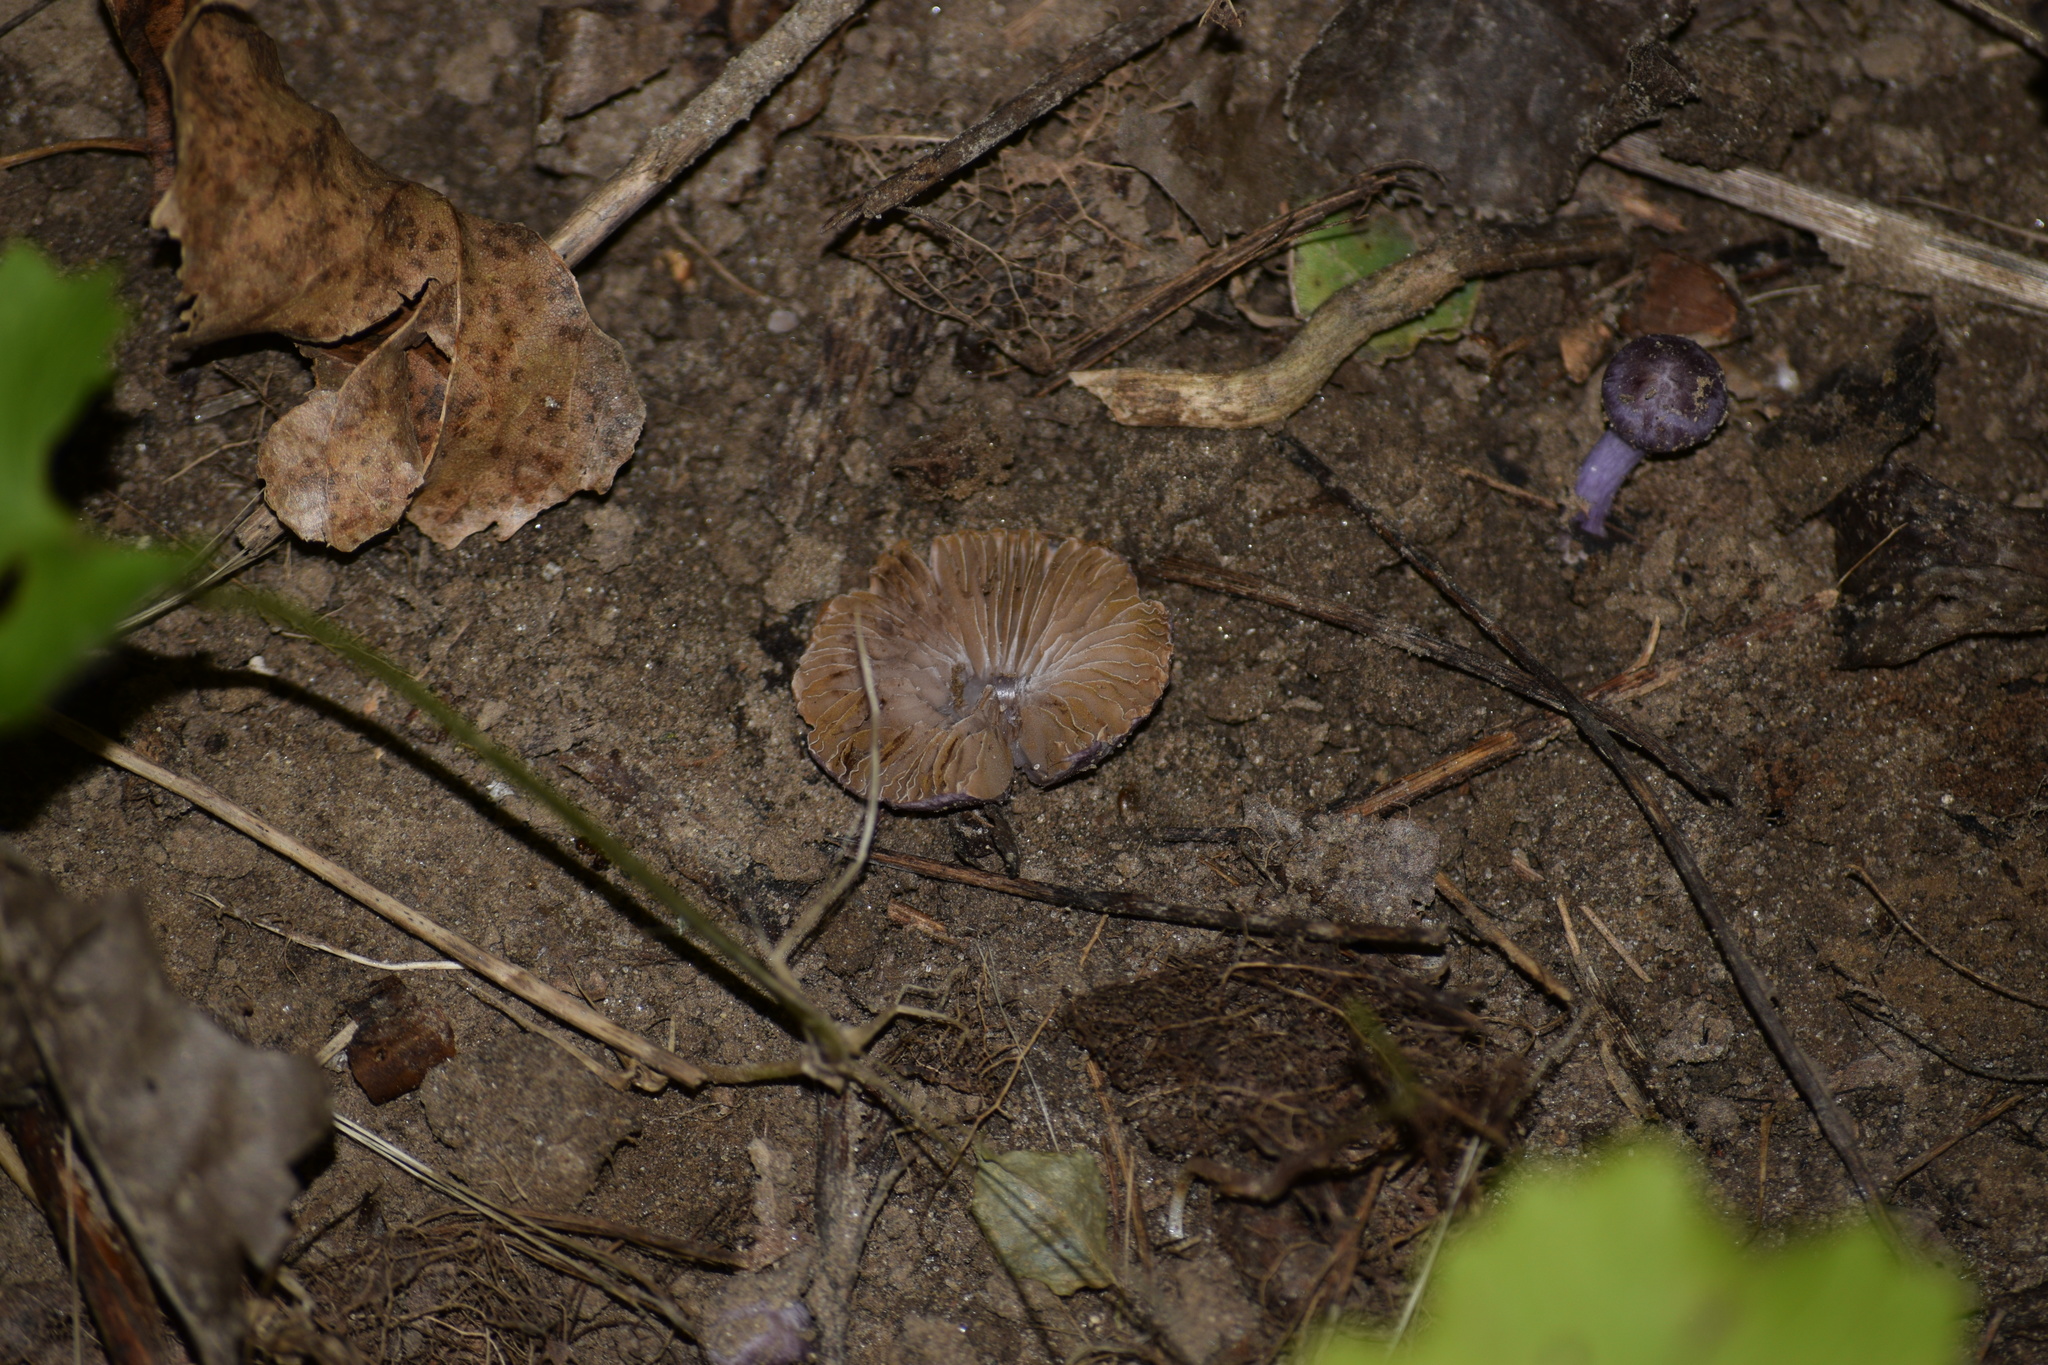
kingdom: Fungi
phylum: Basidiomycota
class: Agaricomycetes
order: Agaricales
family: Cortinariaceae
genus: Cortinarius
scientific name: Cortinarius iodes
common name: Viscid violet cort
